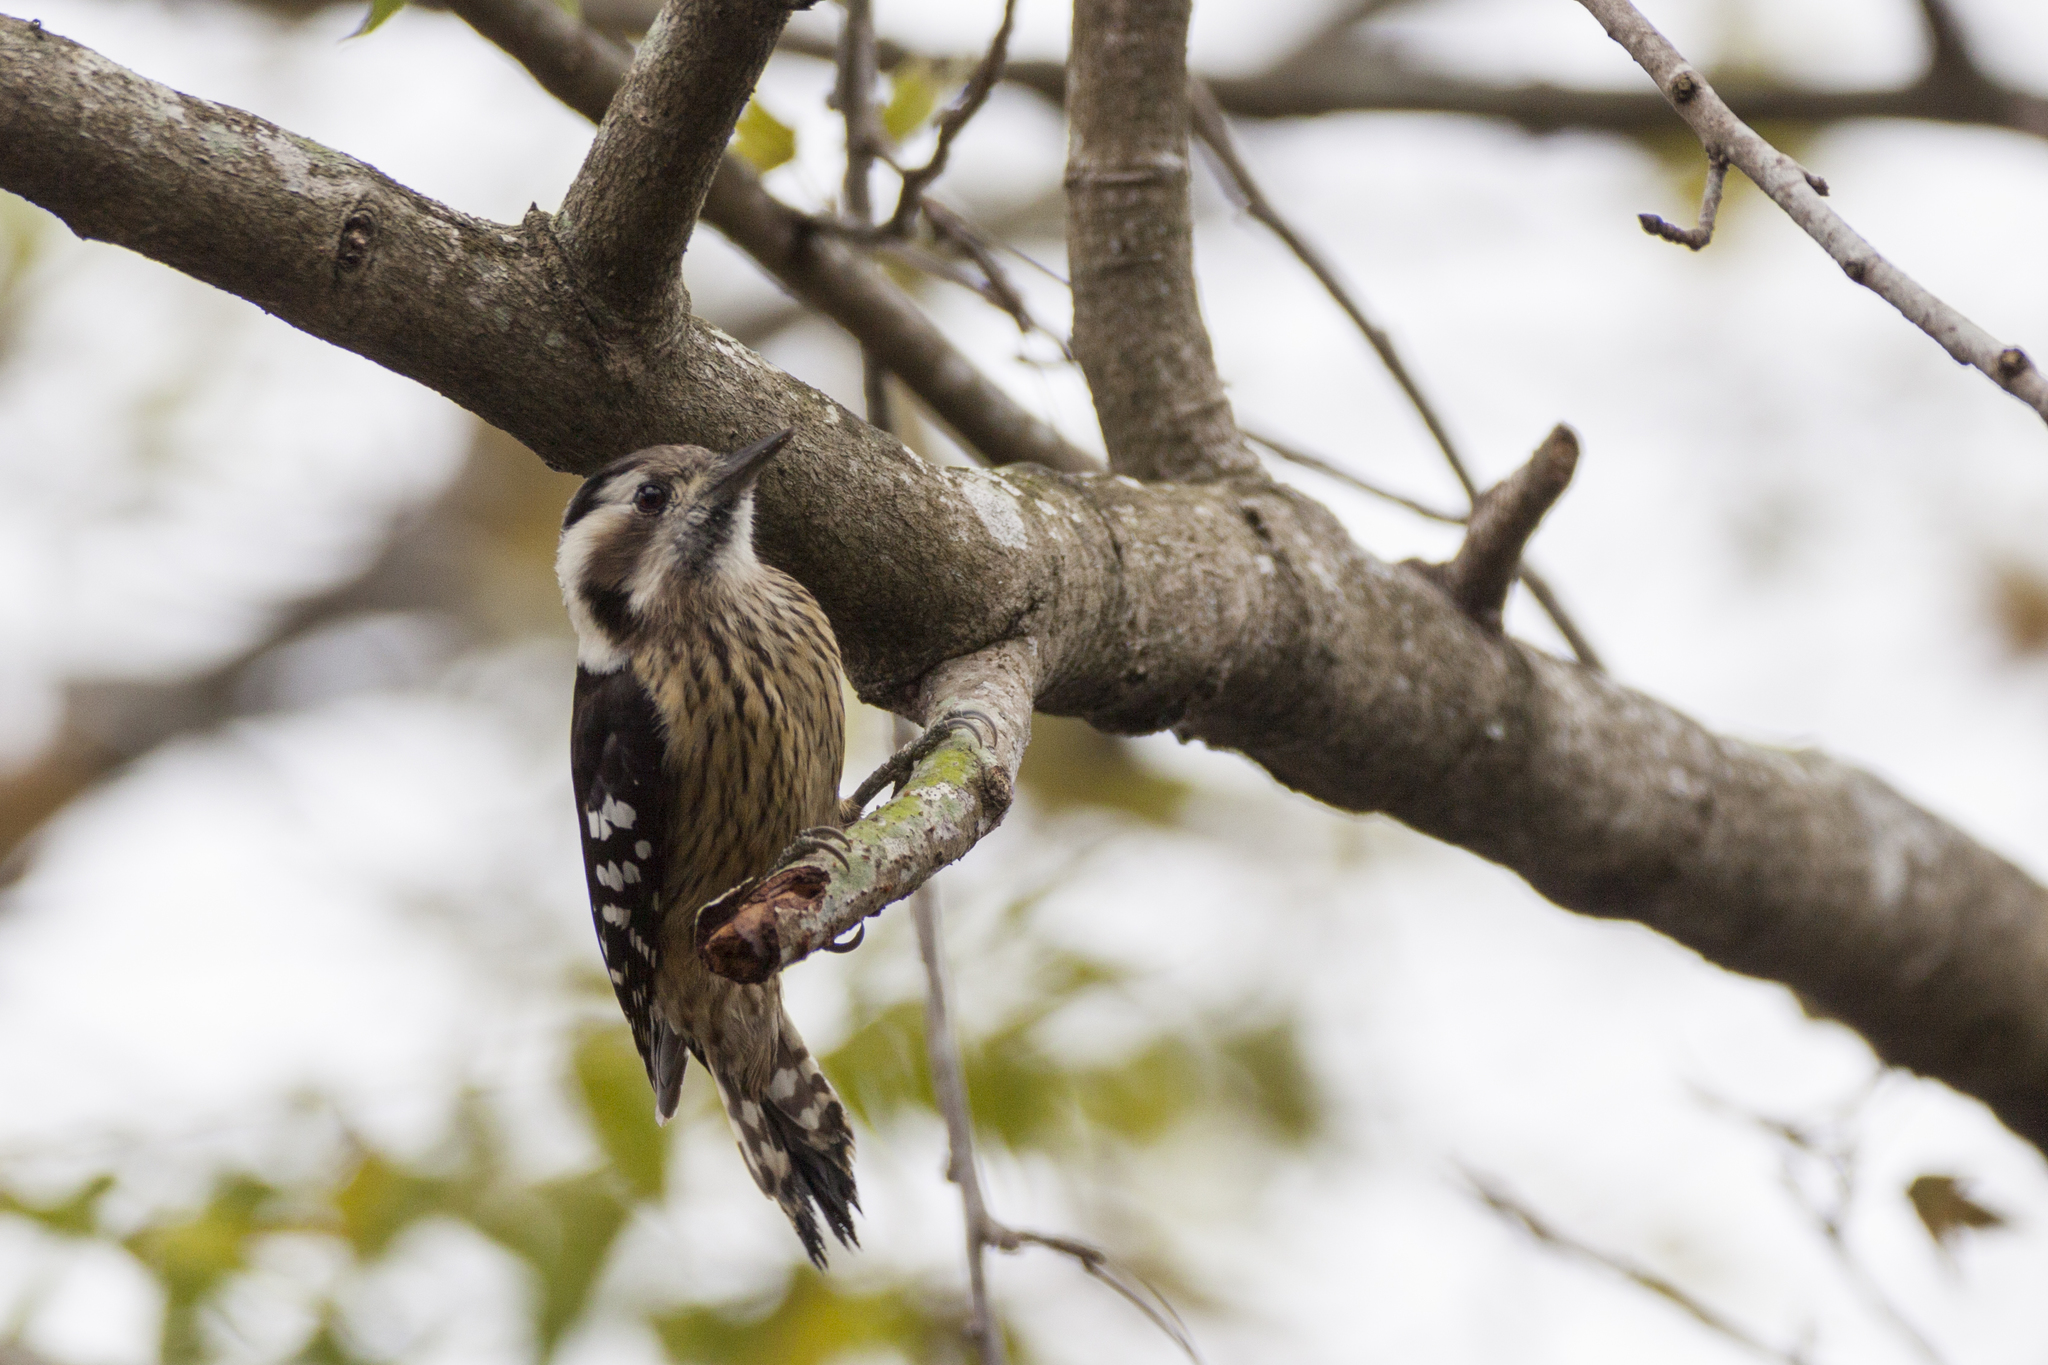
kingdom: Animalia
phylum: Chordata
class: Aves
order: Piciformes
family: Picidae
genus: Yungipicus
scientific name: Yungipicus canicapillus
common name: Grey-capped pygmy woodpecker
